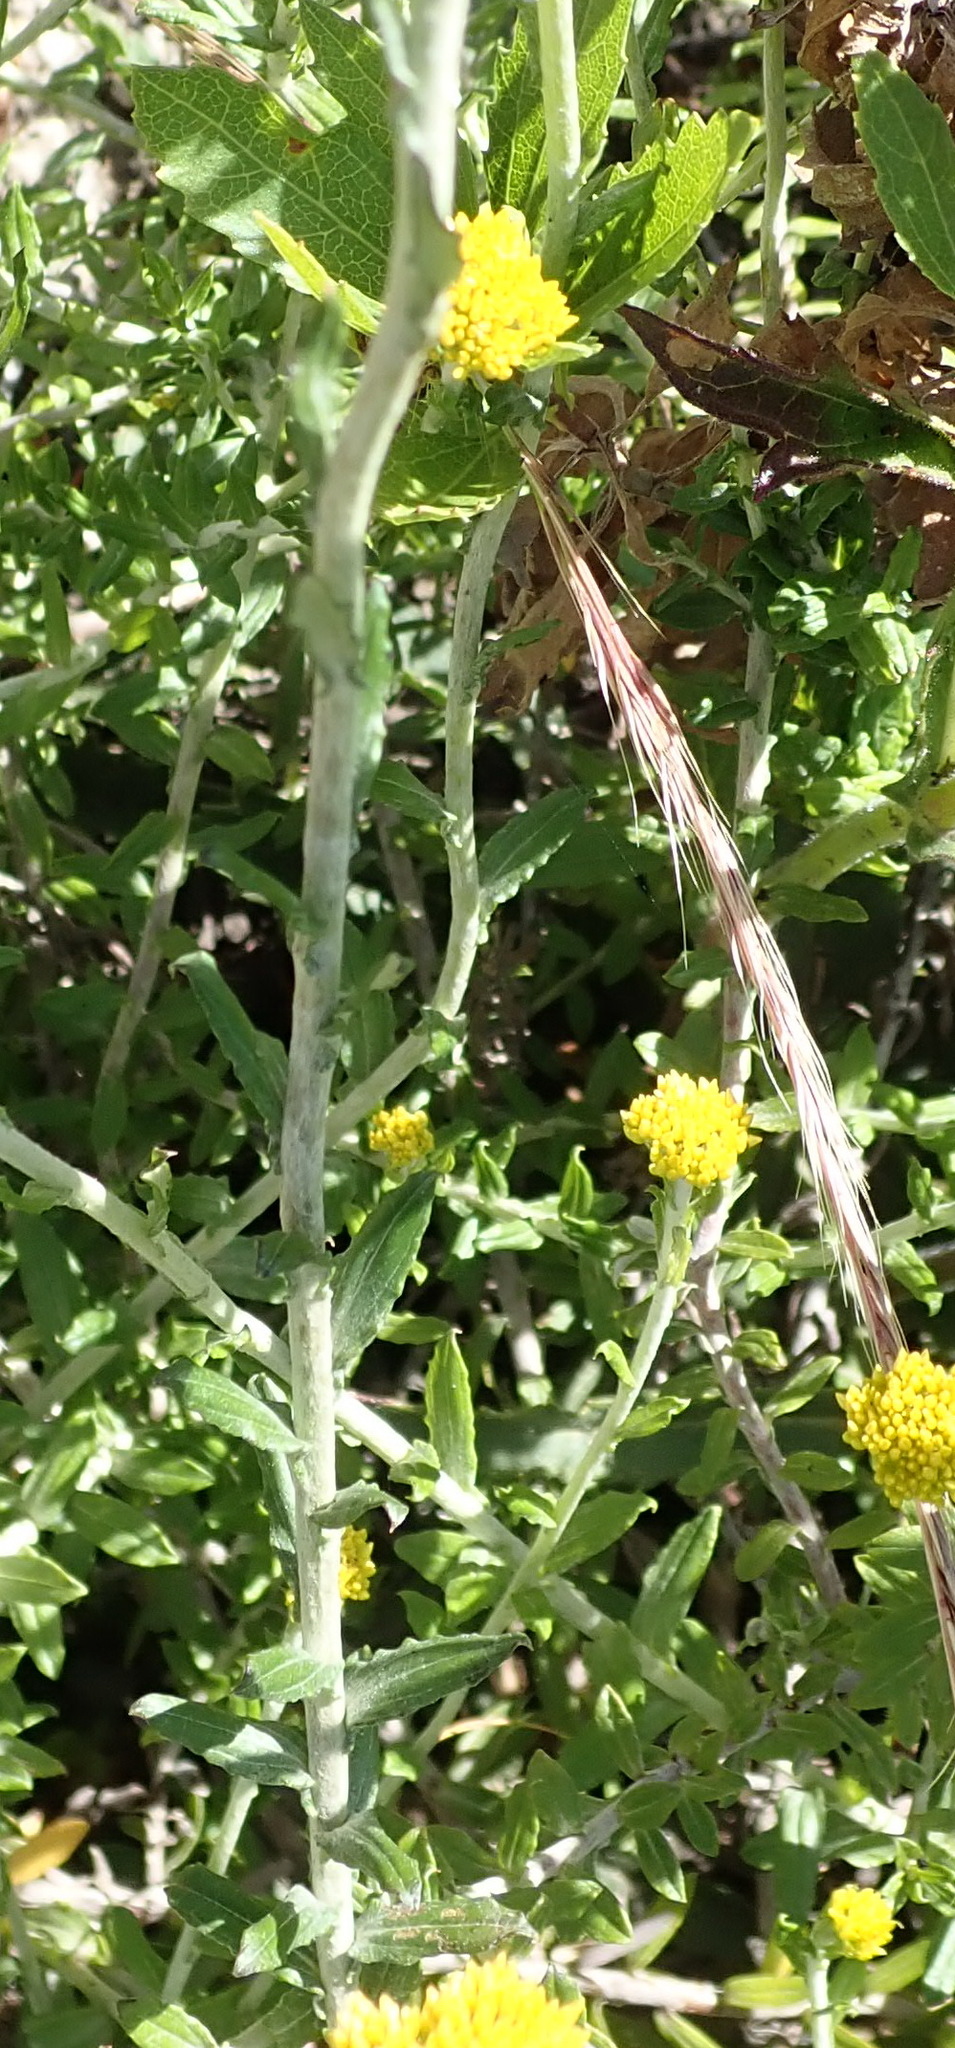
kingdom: Plantae
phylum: Tracheophyta
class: Magnoliopsida
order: Asterales
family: Asteraceae
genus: Helichrysum
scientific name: Helichrysum cymosum
